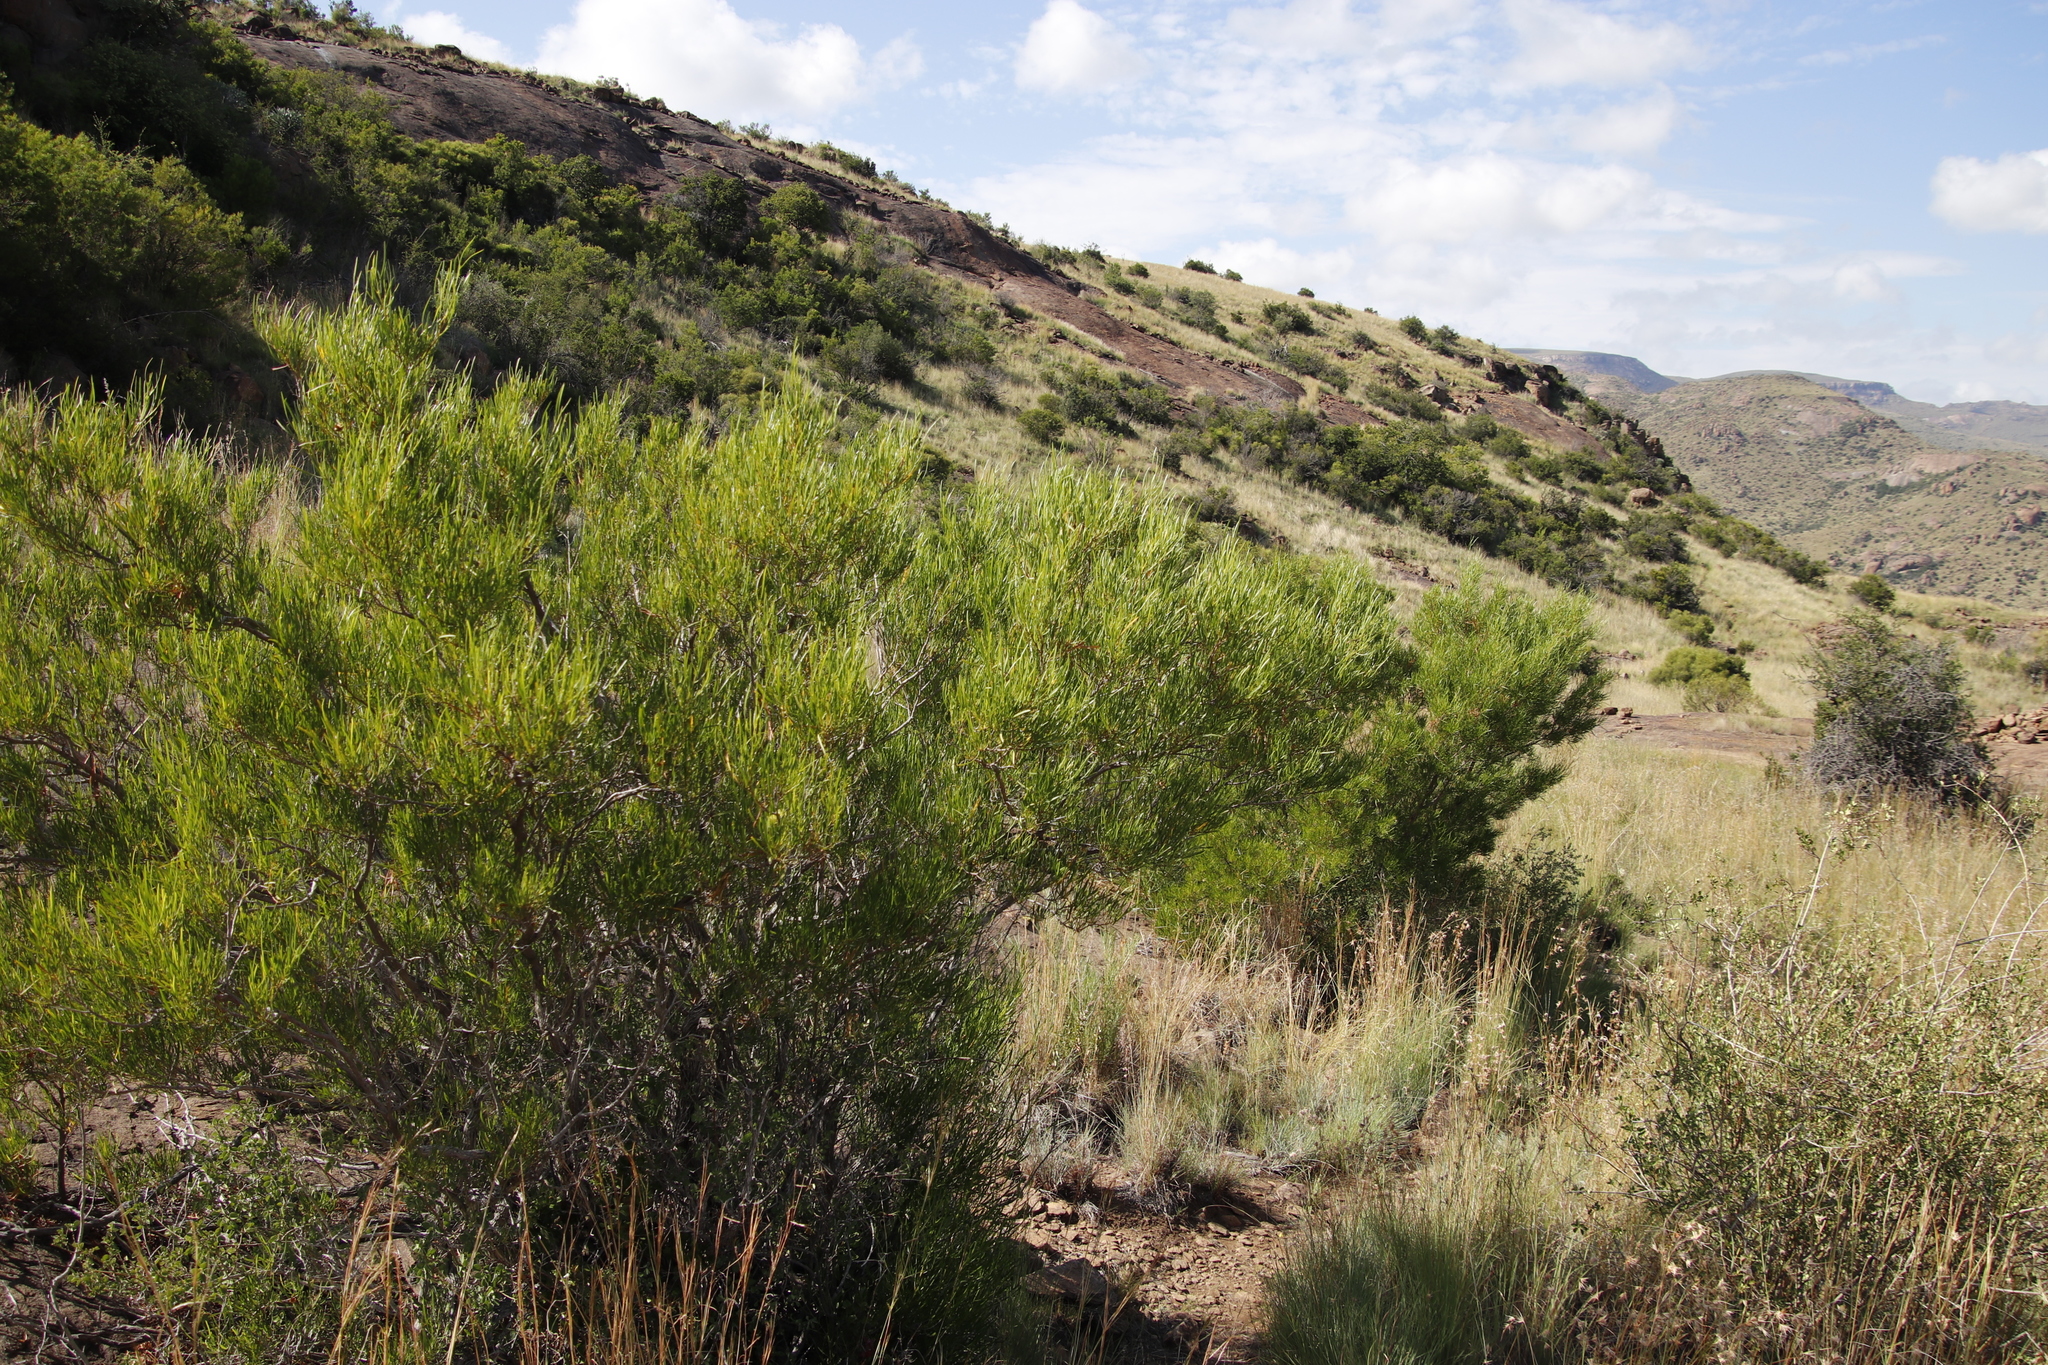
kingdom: Plantae
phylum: Tracheophyta
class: Magnoliopsida
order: Sapindales
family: Sapindaceae
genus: Dodonaea
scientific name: Dodonaea viscosa
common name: Hopbush
